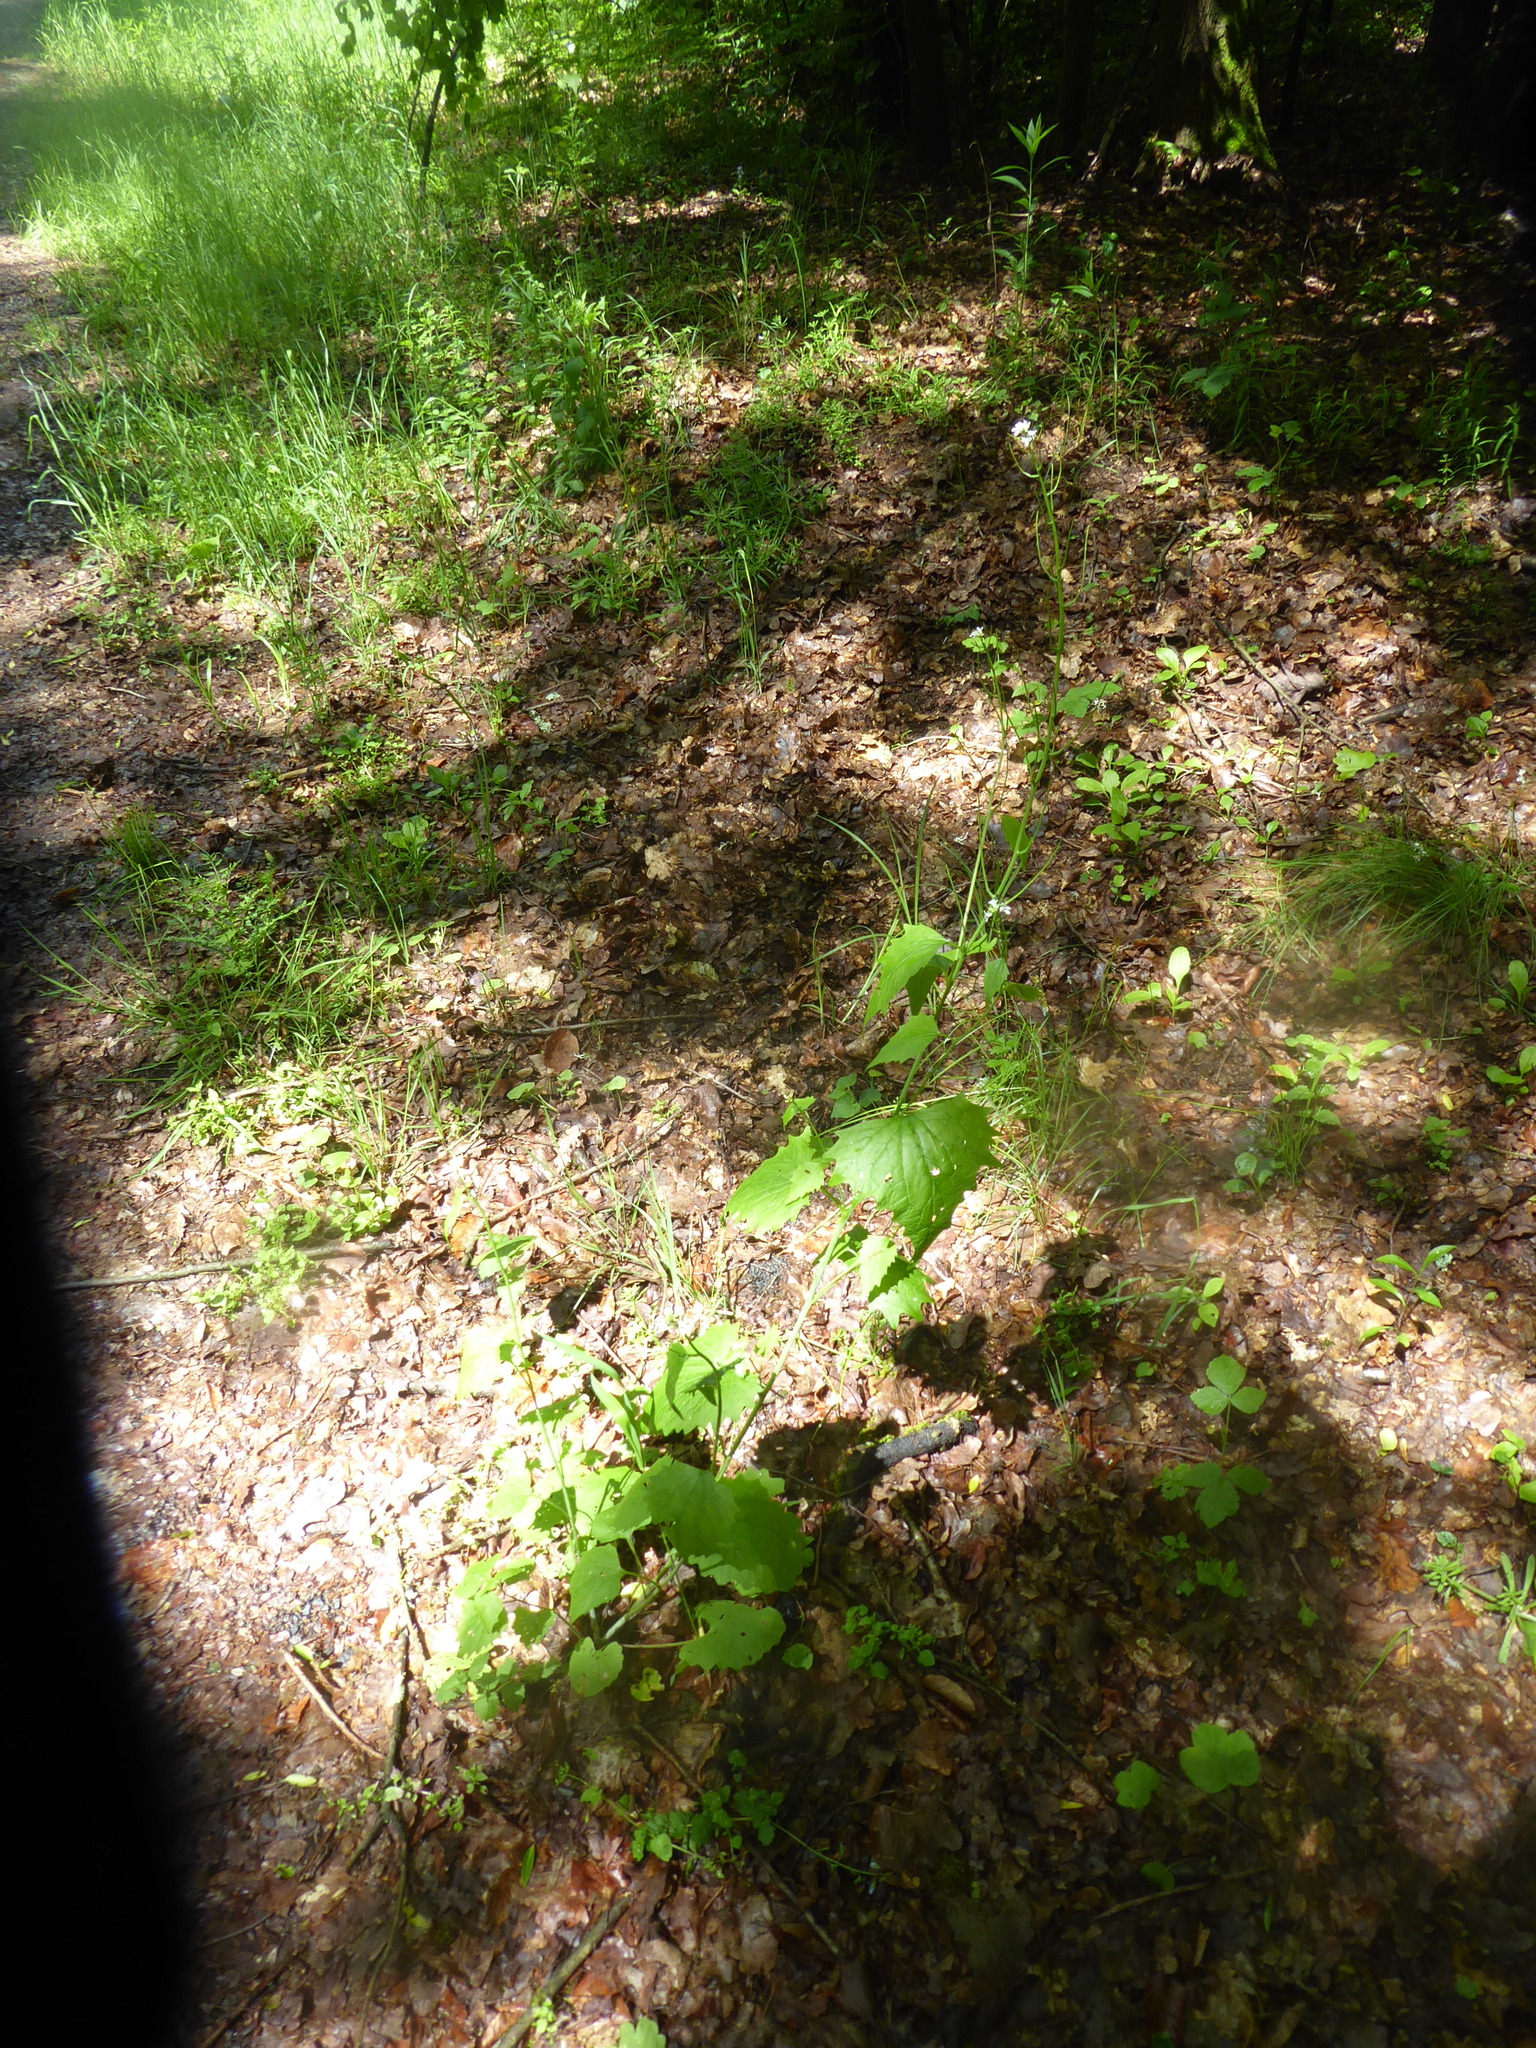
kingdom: Plantae
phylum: Tracheophyta
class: Magnoliopsida
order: Brassicales
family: Brassicaceae
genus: Alliaria
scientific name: Alliaria petiolata
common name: Garlic mustard
